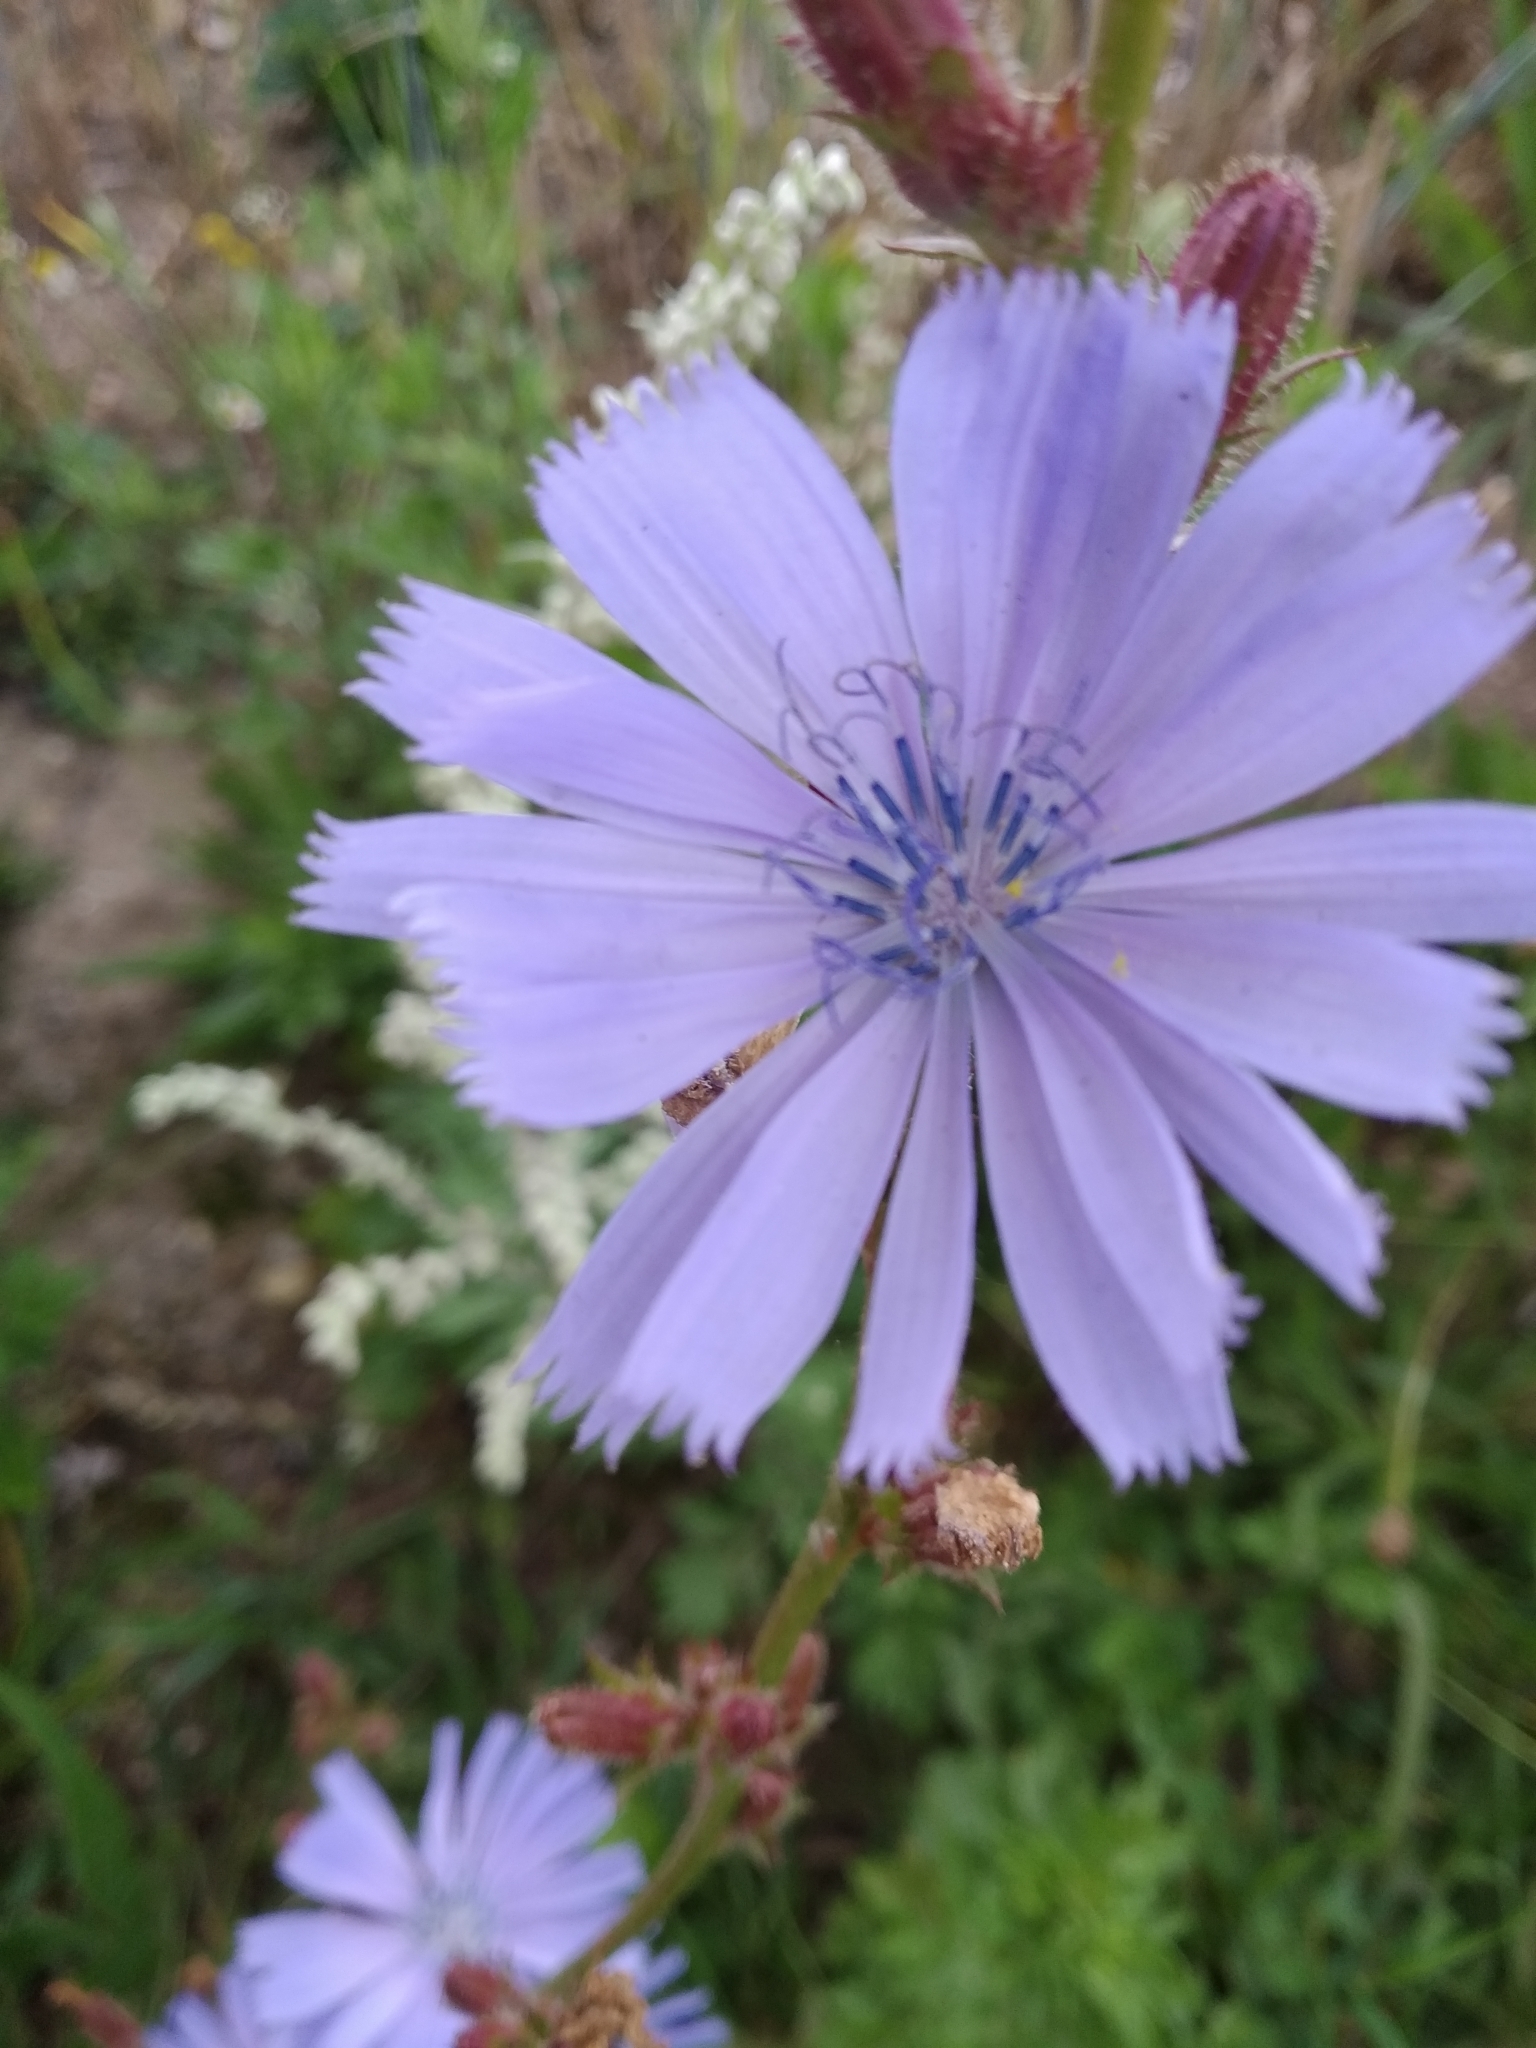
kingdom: Plantae
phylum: Tracheophyta
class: Magnoliopsida
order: Asterales
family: Asteraceae
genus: Cichorium
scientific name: Cichorium intybus
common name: Chicory
